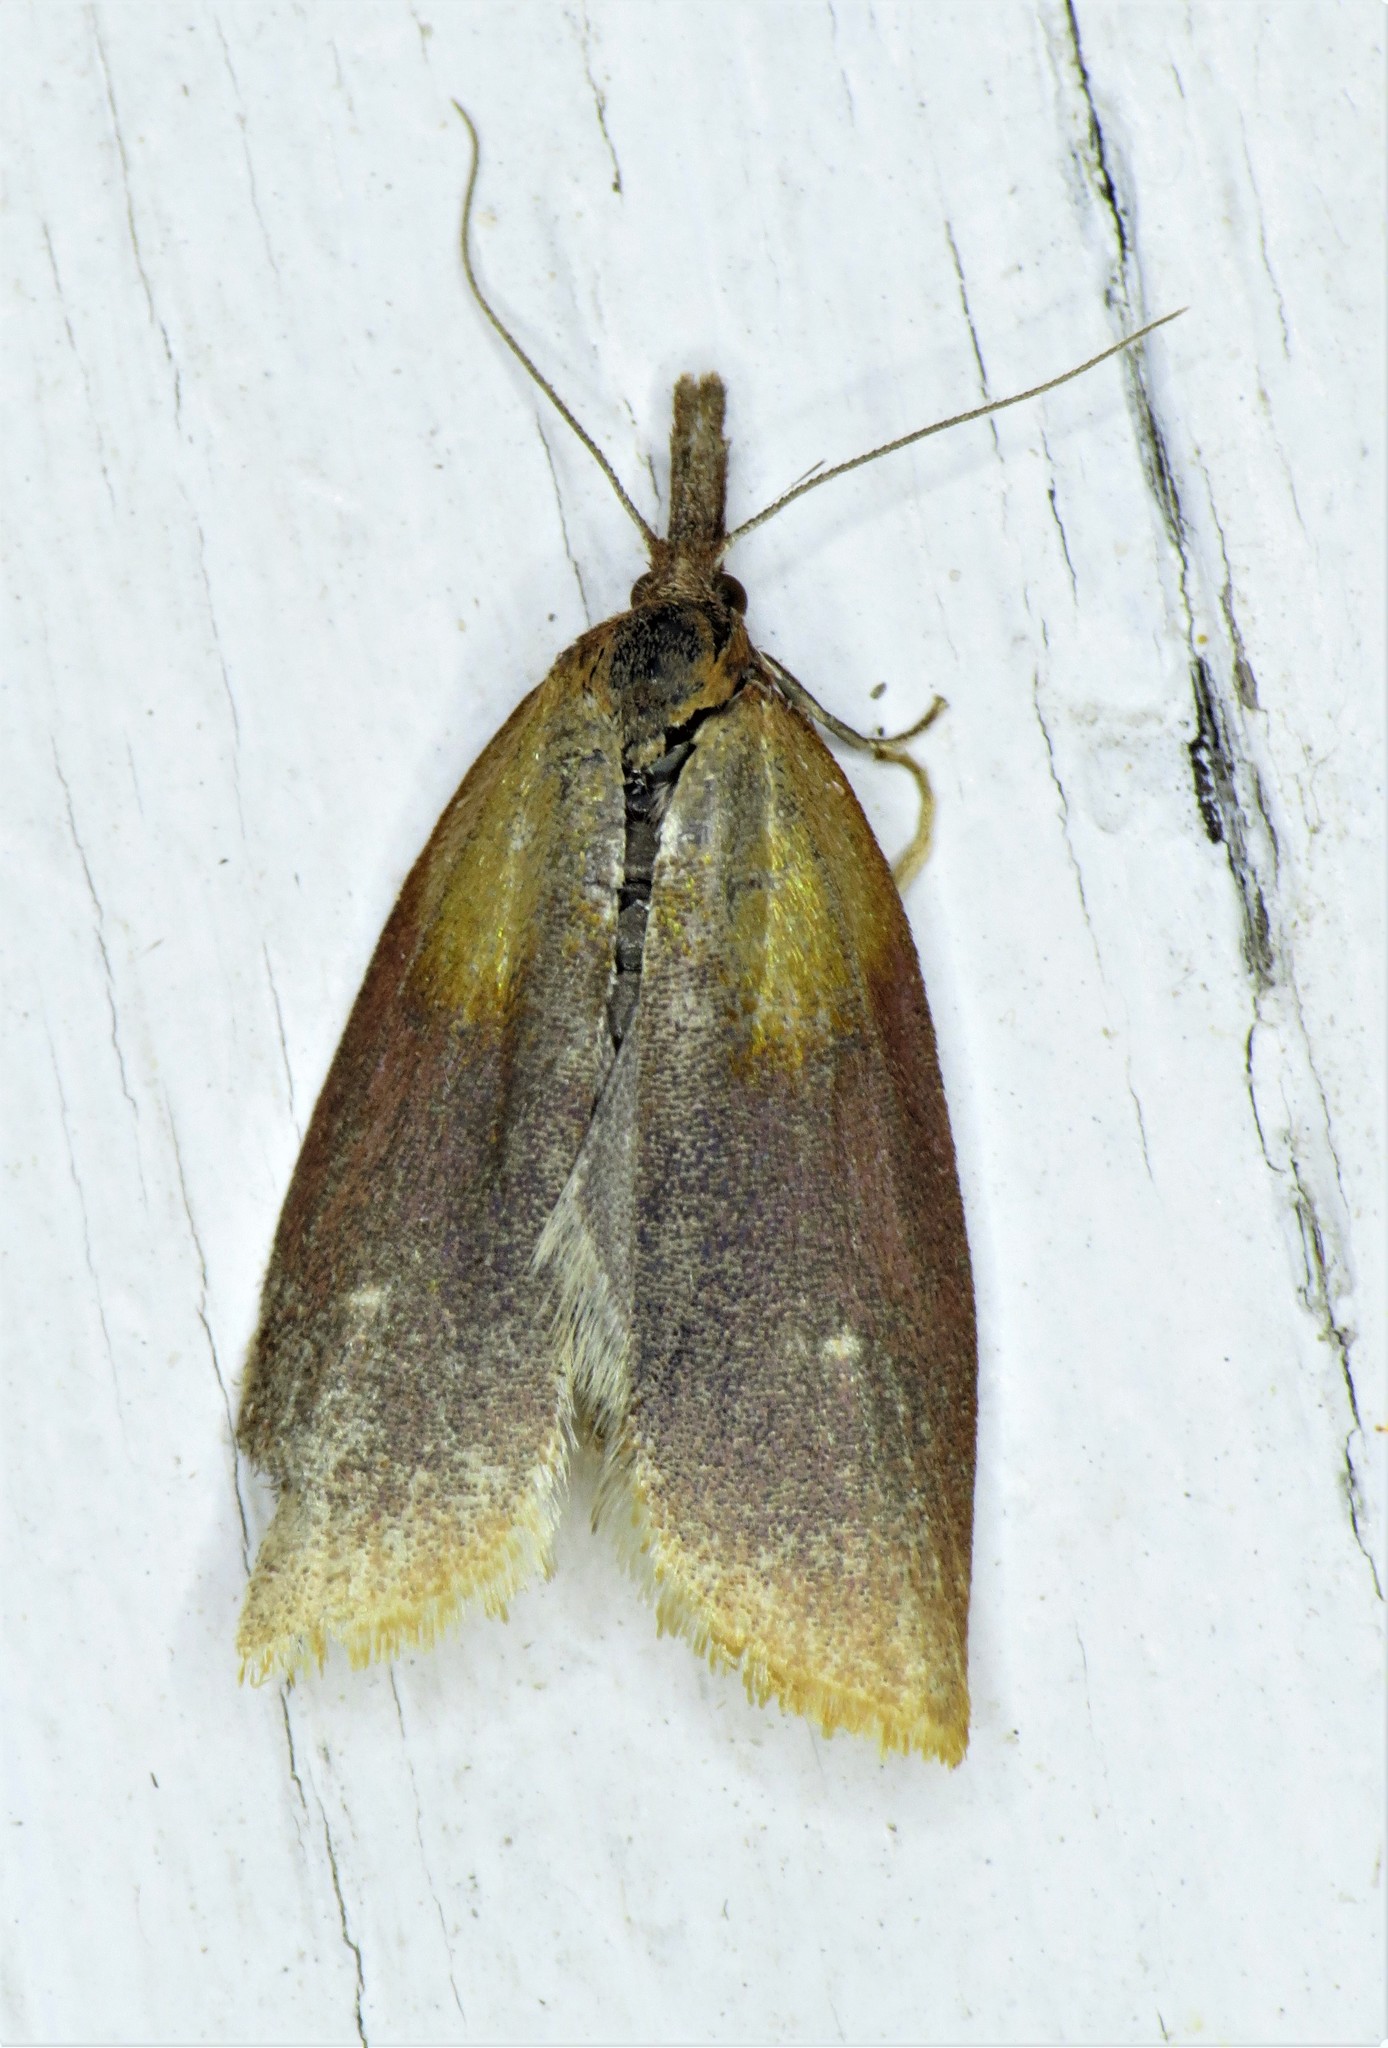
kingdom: Animalia
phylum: Arthropoda
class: Insecta
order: Lepidoptera
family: Tortricidae
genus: Sparganothis
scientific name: Sparganothis violaceana
